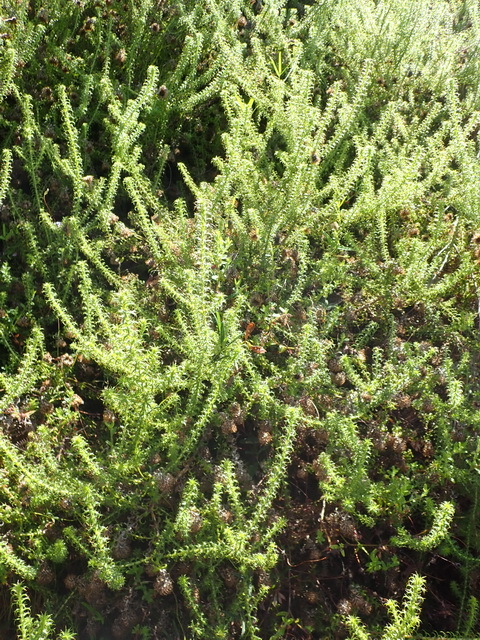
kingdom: Plantae
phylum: Tracheophyta
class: Magnoliopsida
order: Asterales
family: Asteraceae
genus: Cullumia
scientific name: Cullumia decurrens
